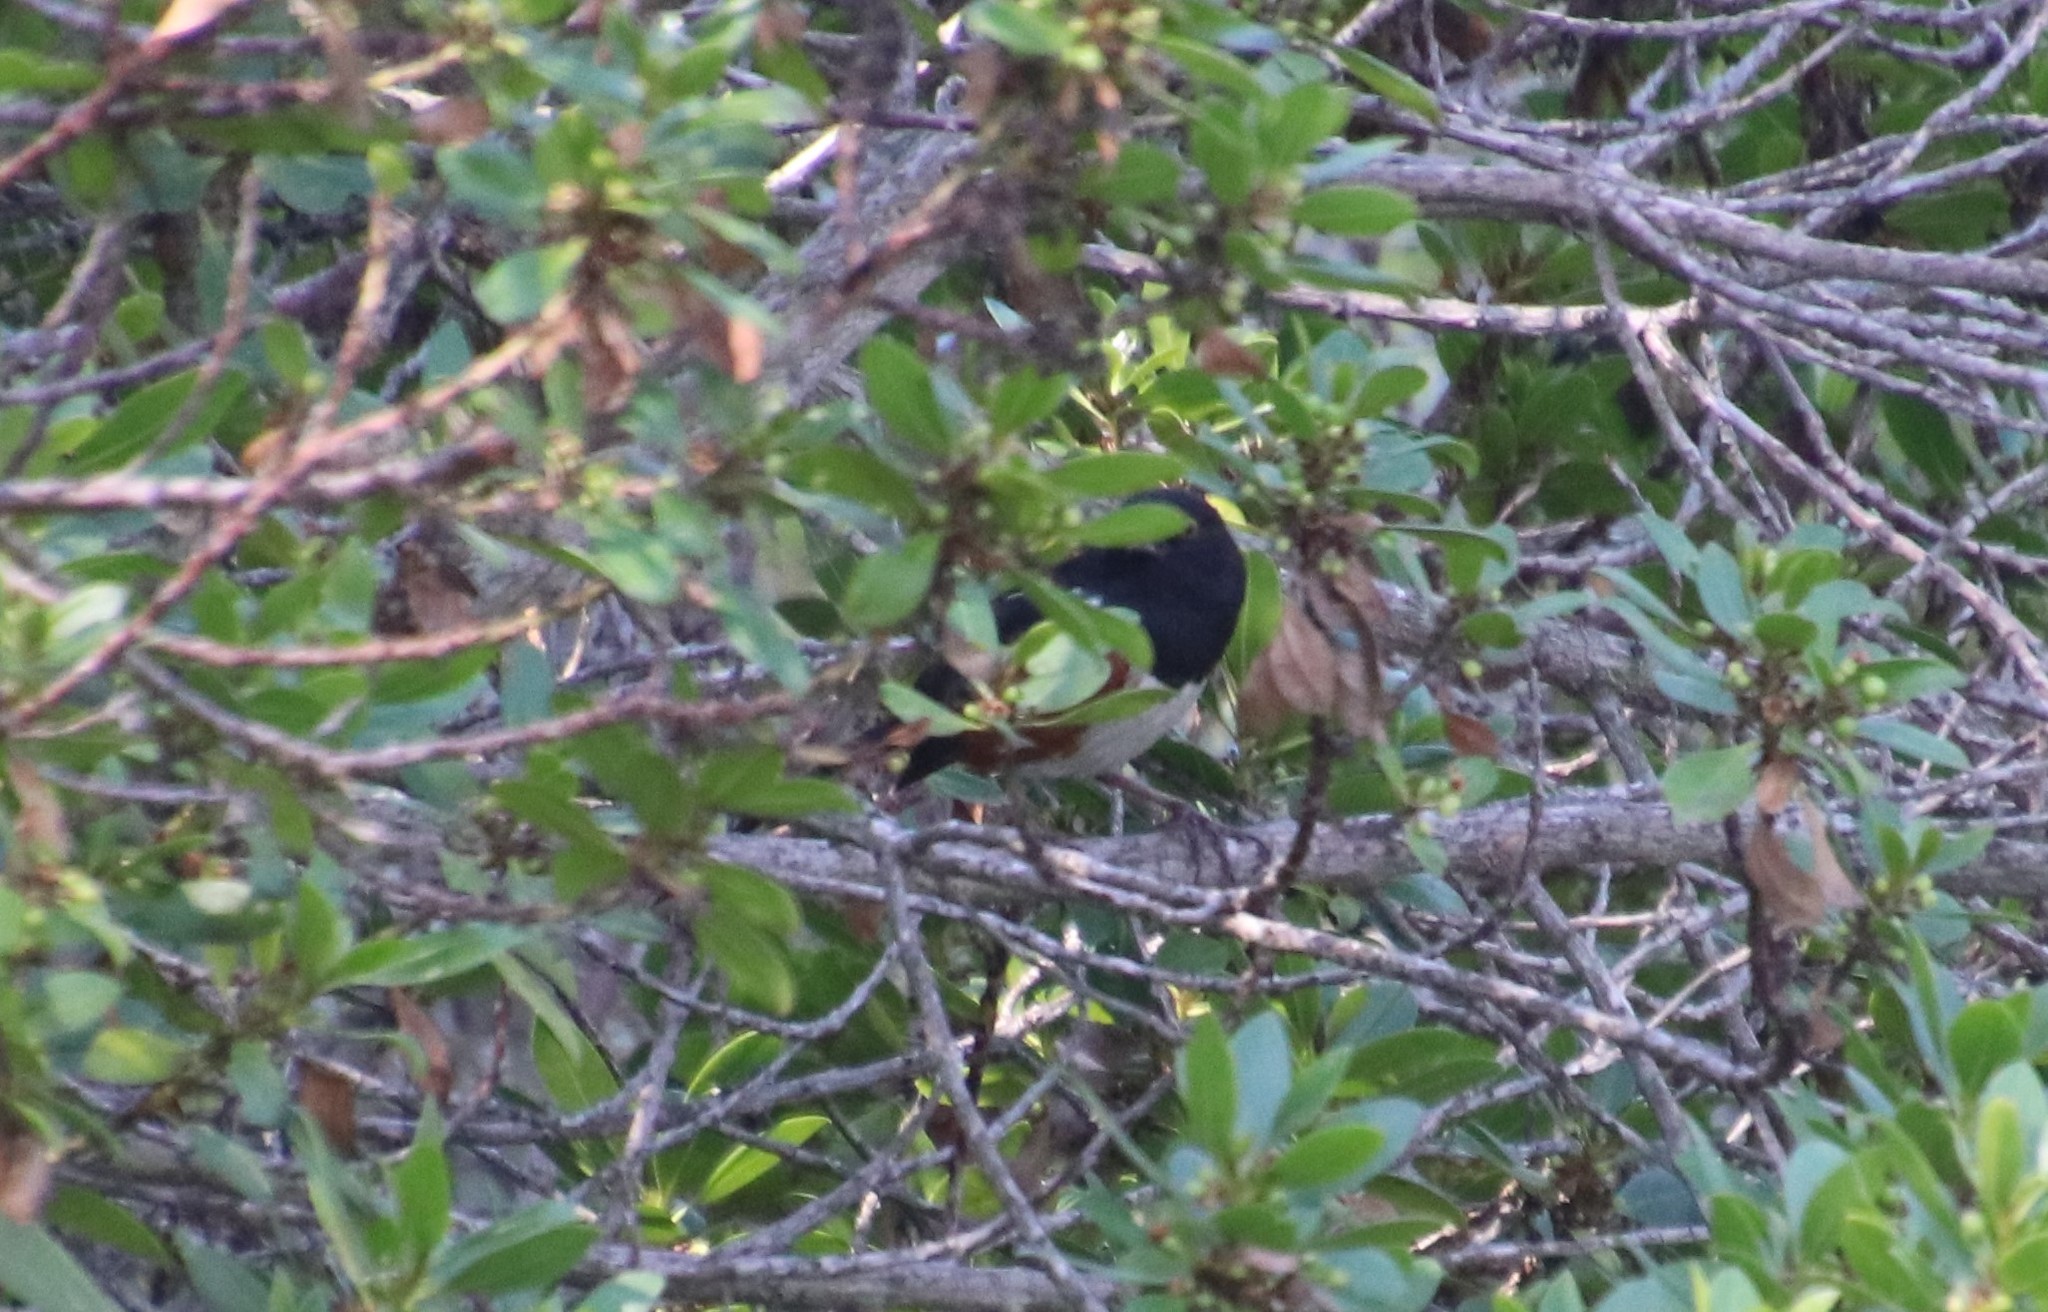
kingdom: Animalia
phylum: Chordata
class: Aves
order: Passeriformes
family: Passerellidae
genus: Pipilo
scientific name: Pipilo maculatus
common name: Spotted towhee
